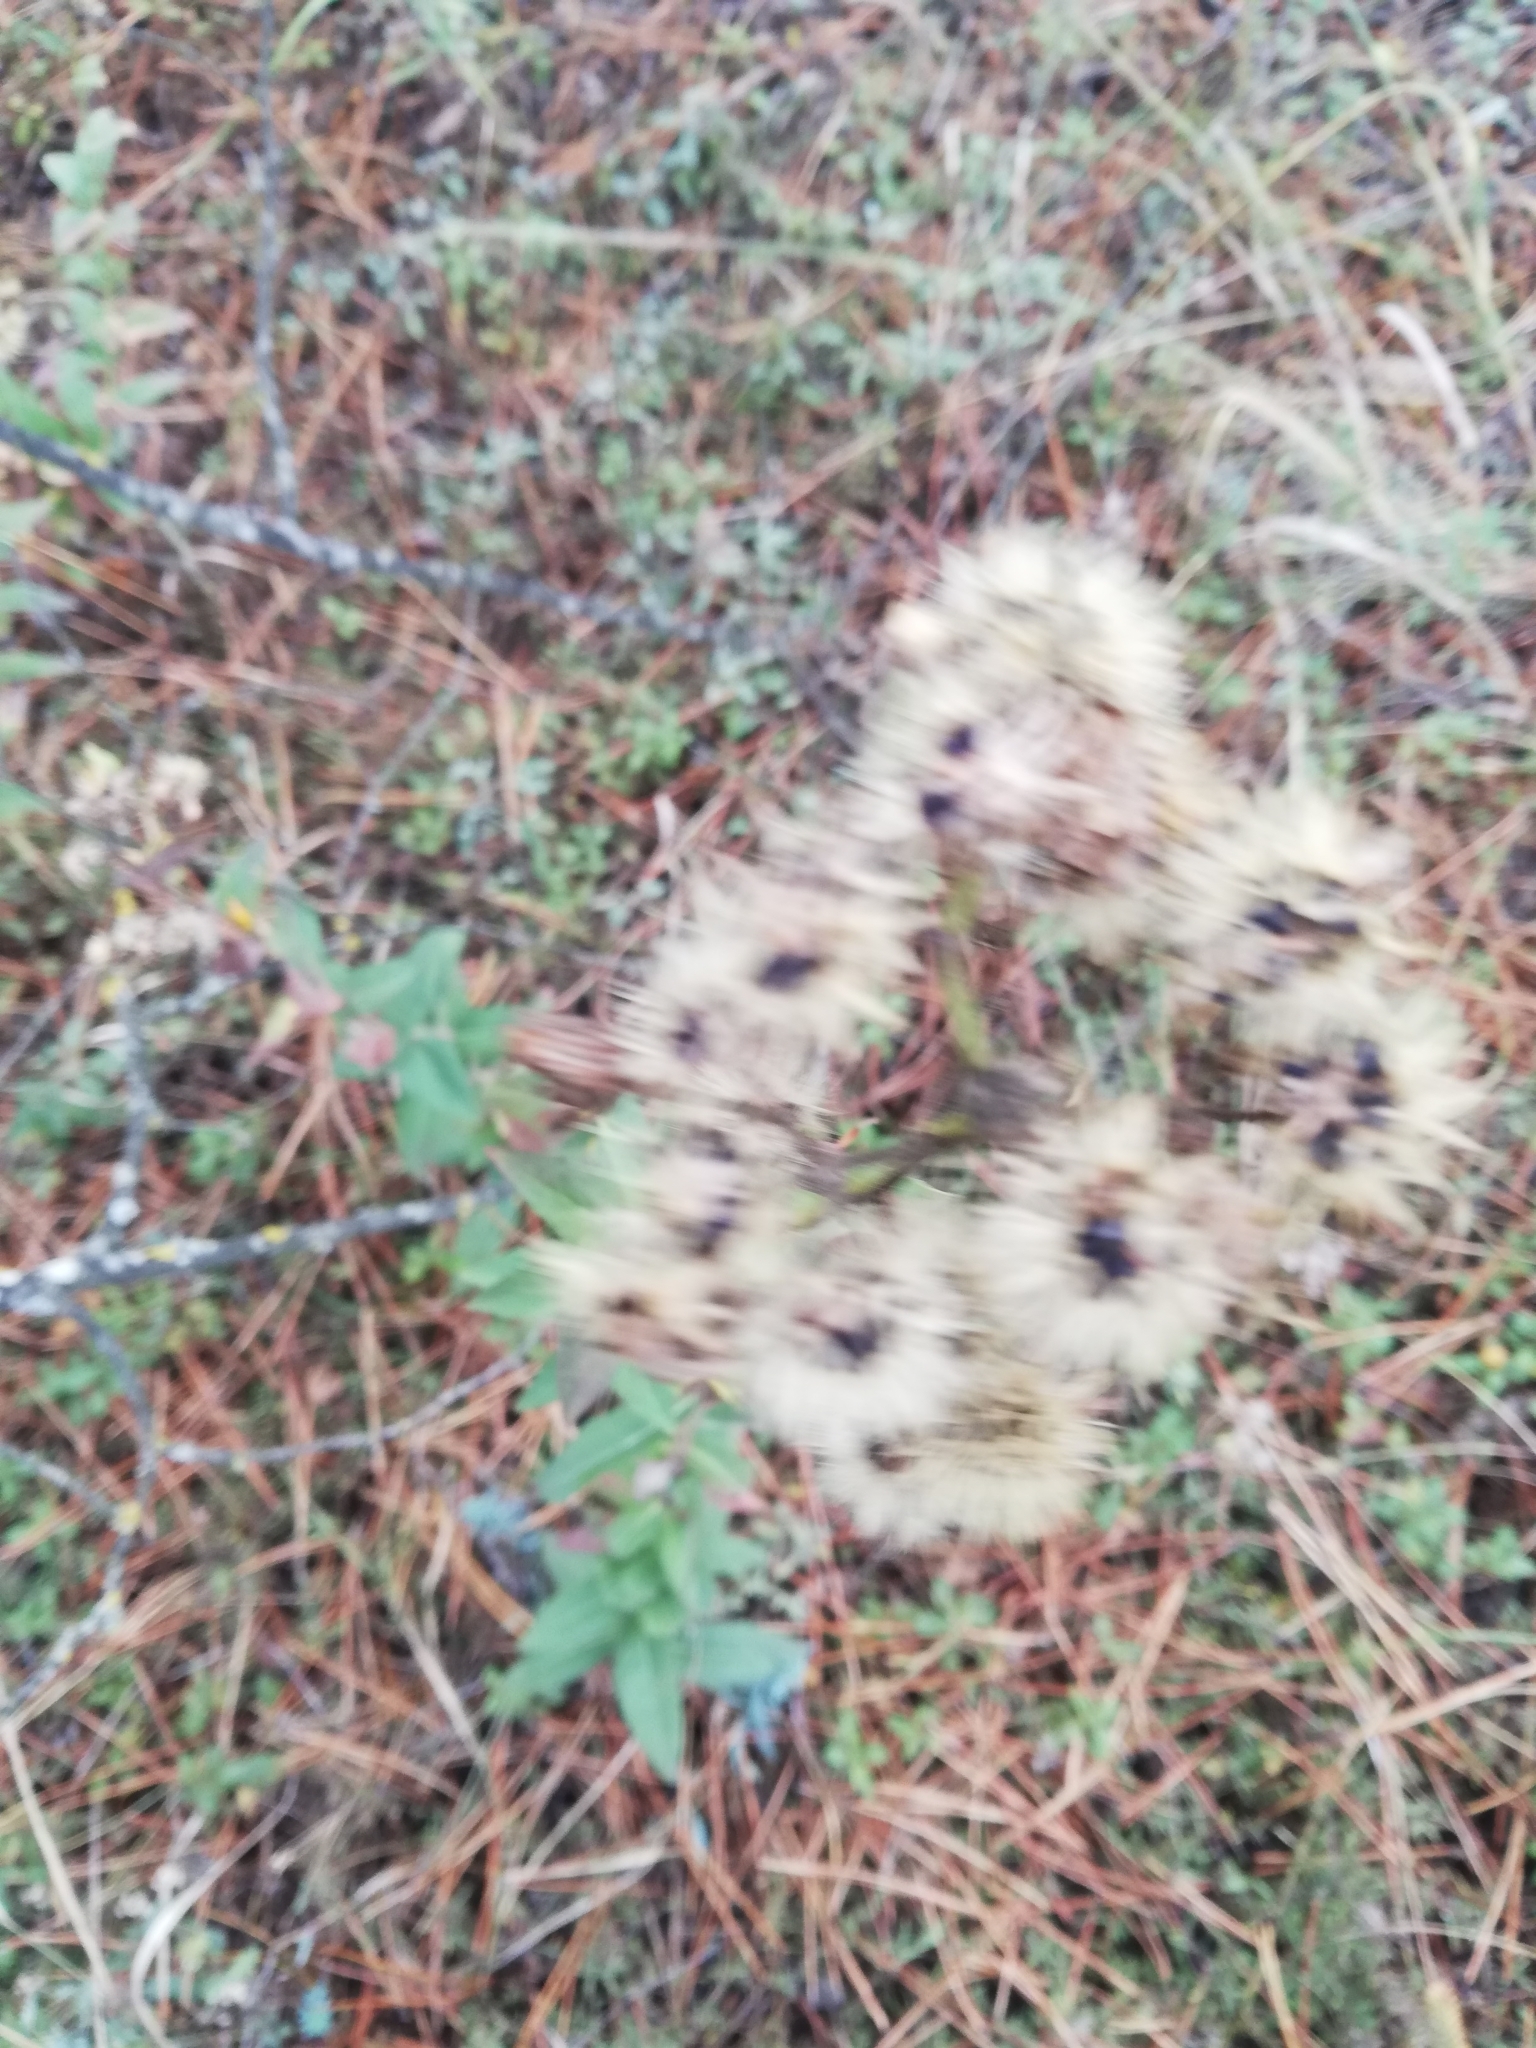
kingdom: Plantae
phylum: Tracheophyta
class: Magnoliopsida
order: Asterales
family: Asteraceae
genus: Pentanema
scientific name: Pentanema squarrosum
